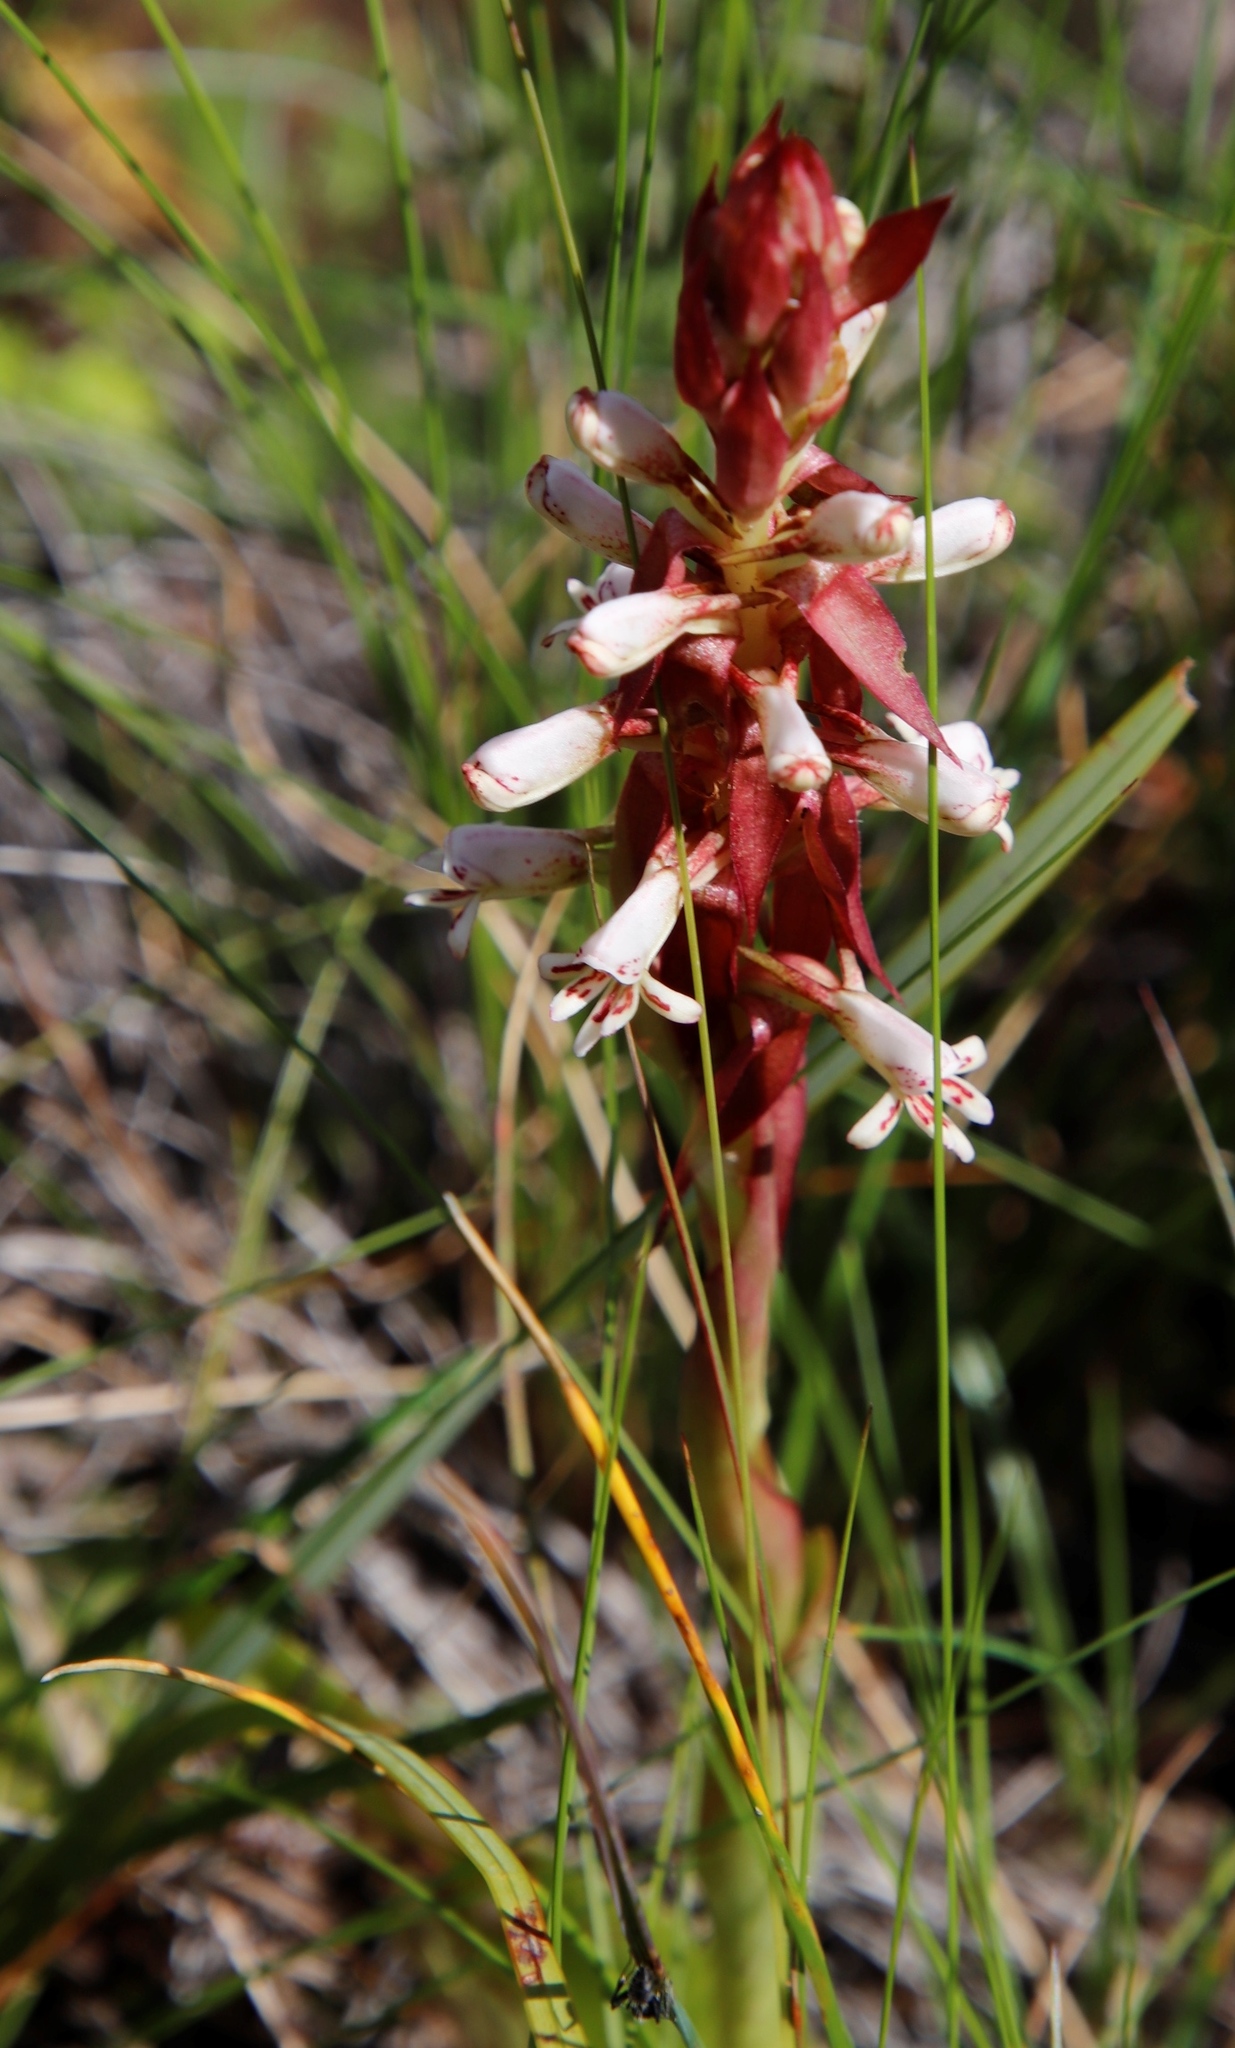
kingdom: Plantae
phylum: Tracheophyta
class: Liliopsida
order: Asparagales
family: Orchidaceae
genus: Satyrium
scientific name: Satyrium cristatum
